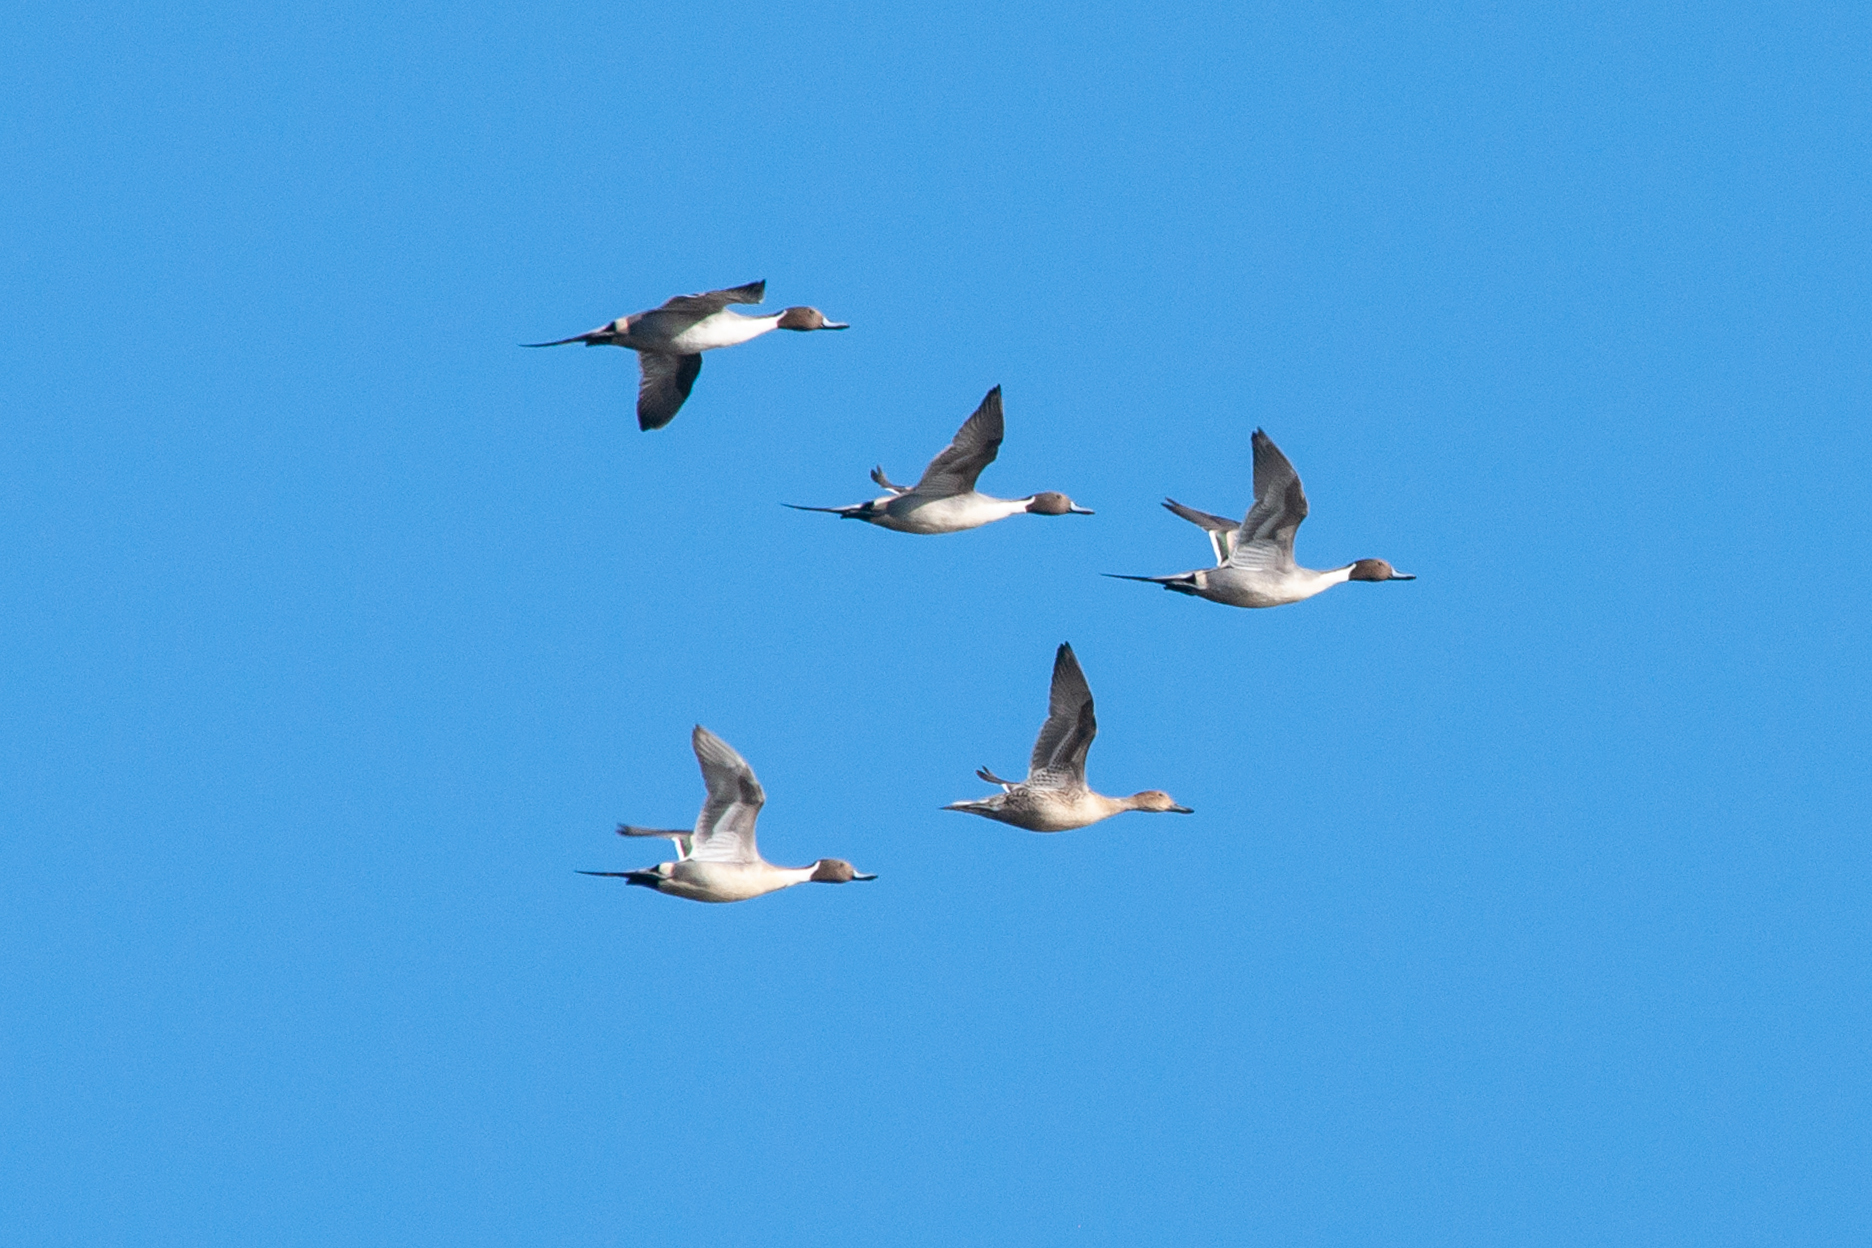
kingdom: Animalia
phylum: Chordata
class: Aves
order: Anseriformes
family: Anatidae
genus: Anas
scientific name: Anas acuta
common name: Northern pintail
